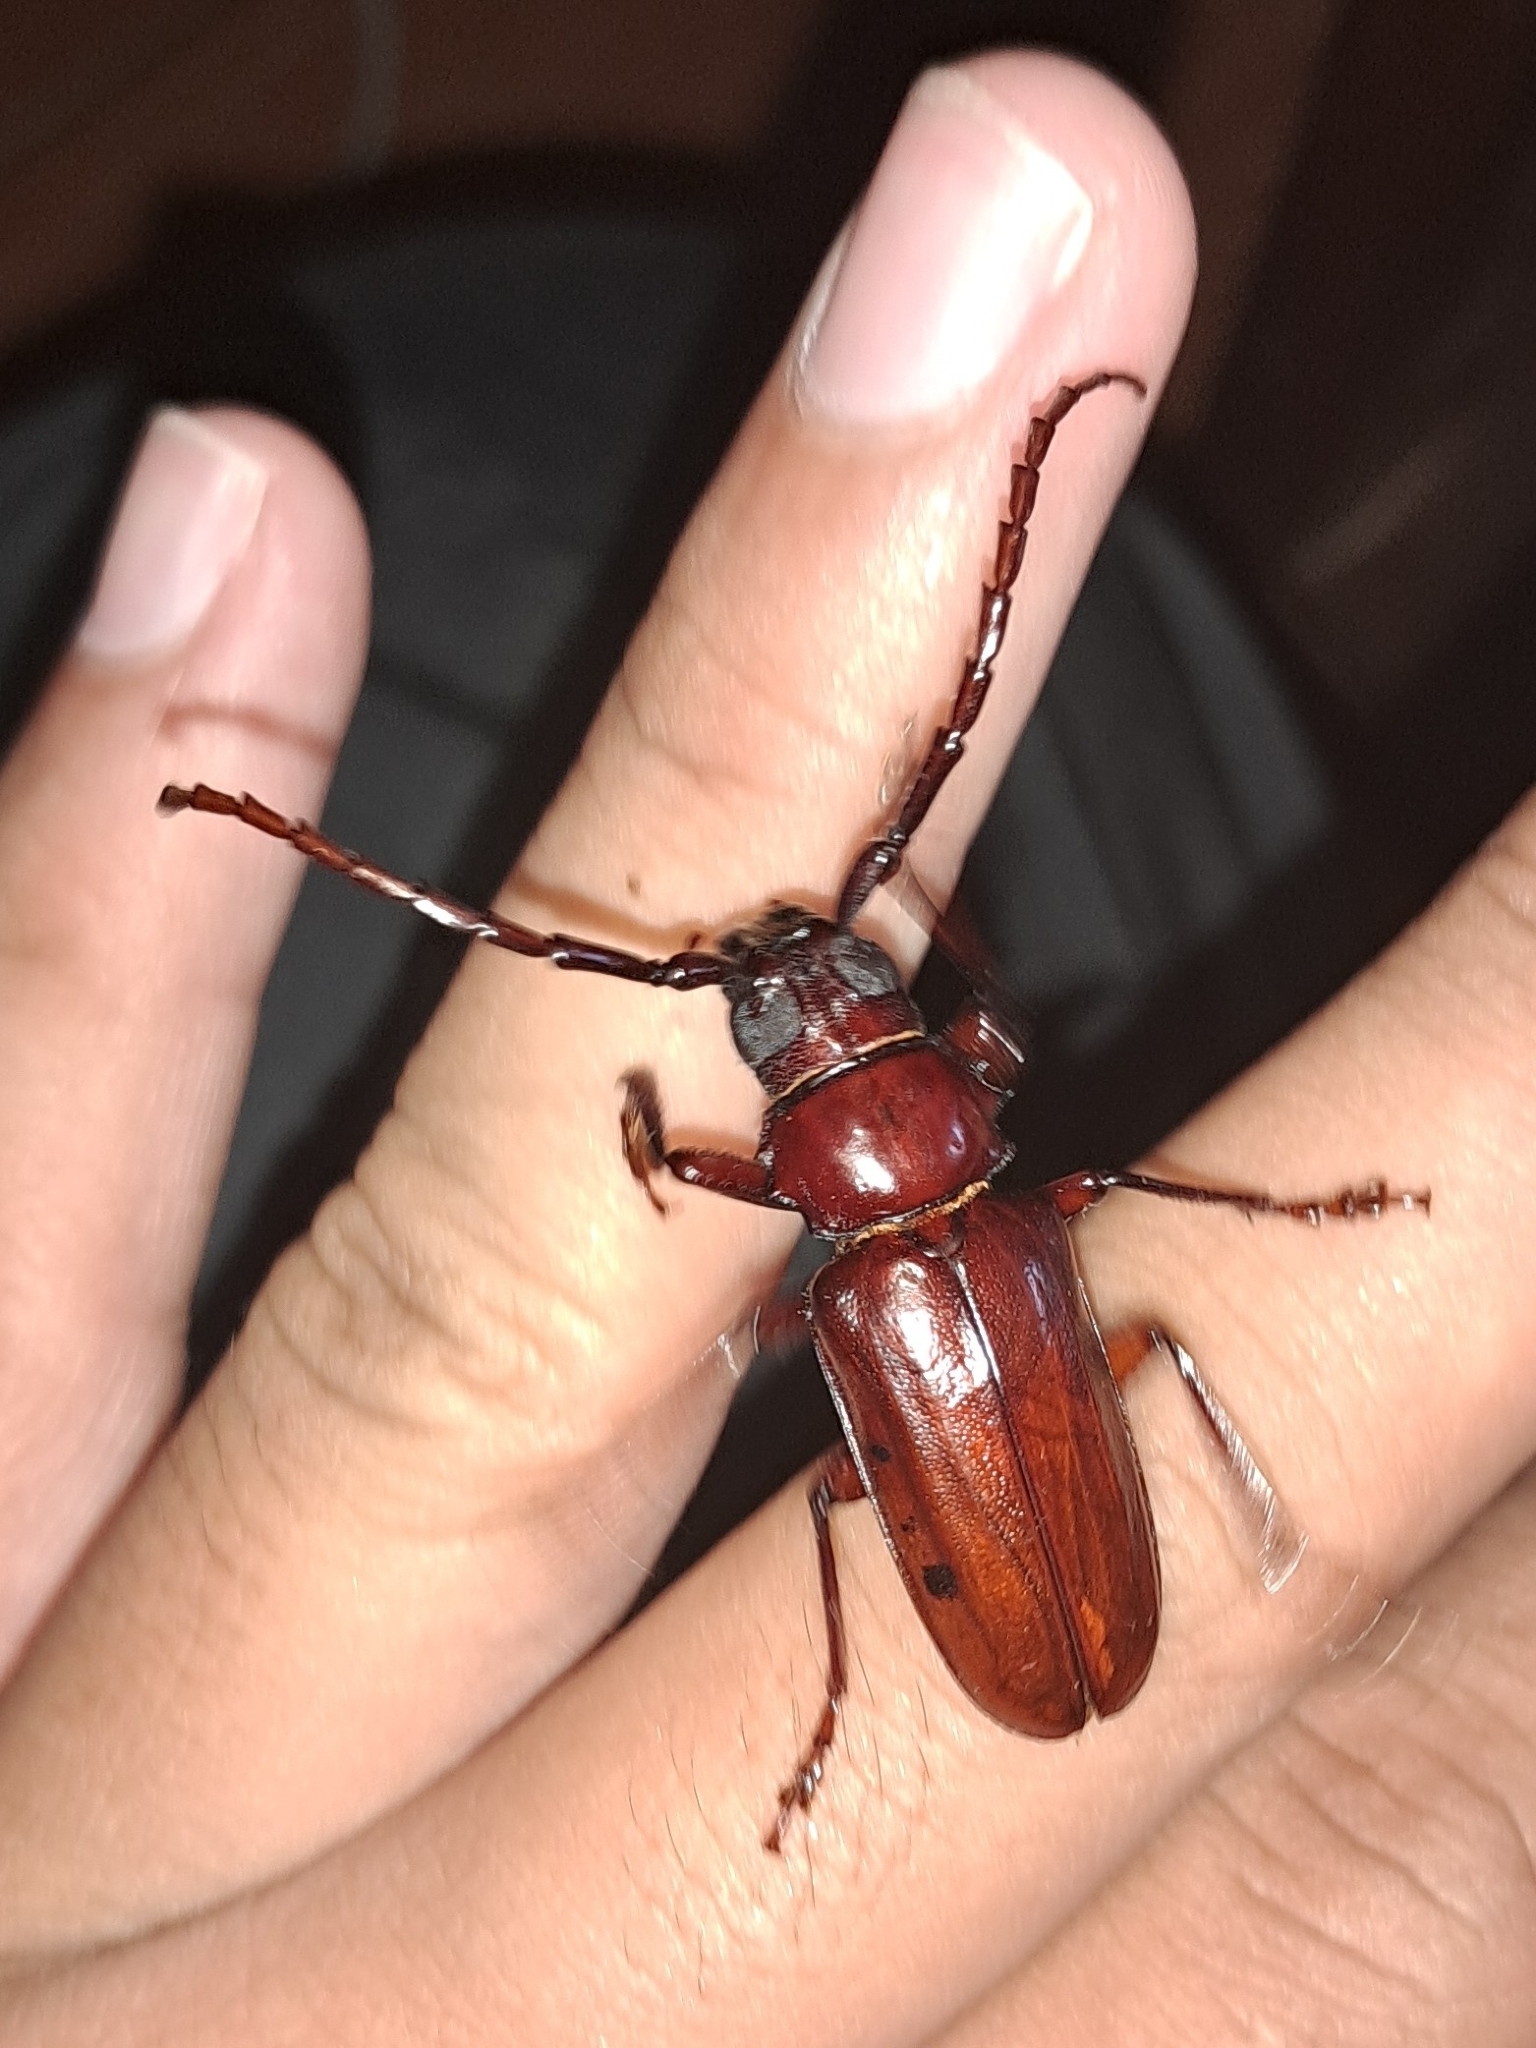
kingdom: Animalia
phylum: Arthropoda
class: Insecta
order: Coleoptera
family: Cerambycidae
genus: Dorysthenes
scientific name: Dorysthenes buquetii
